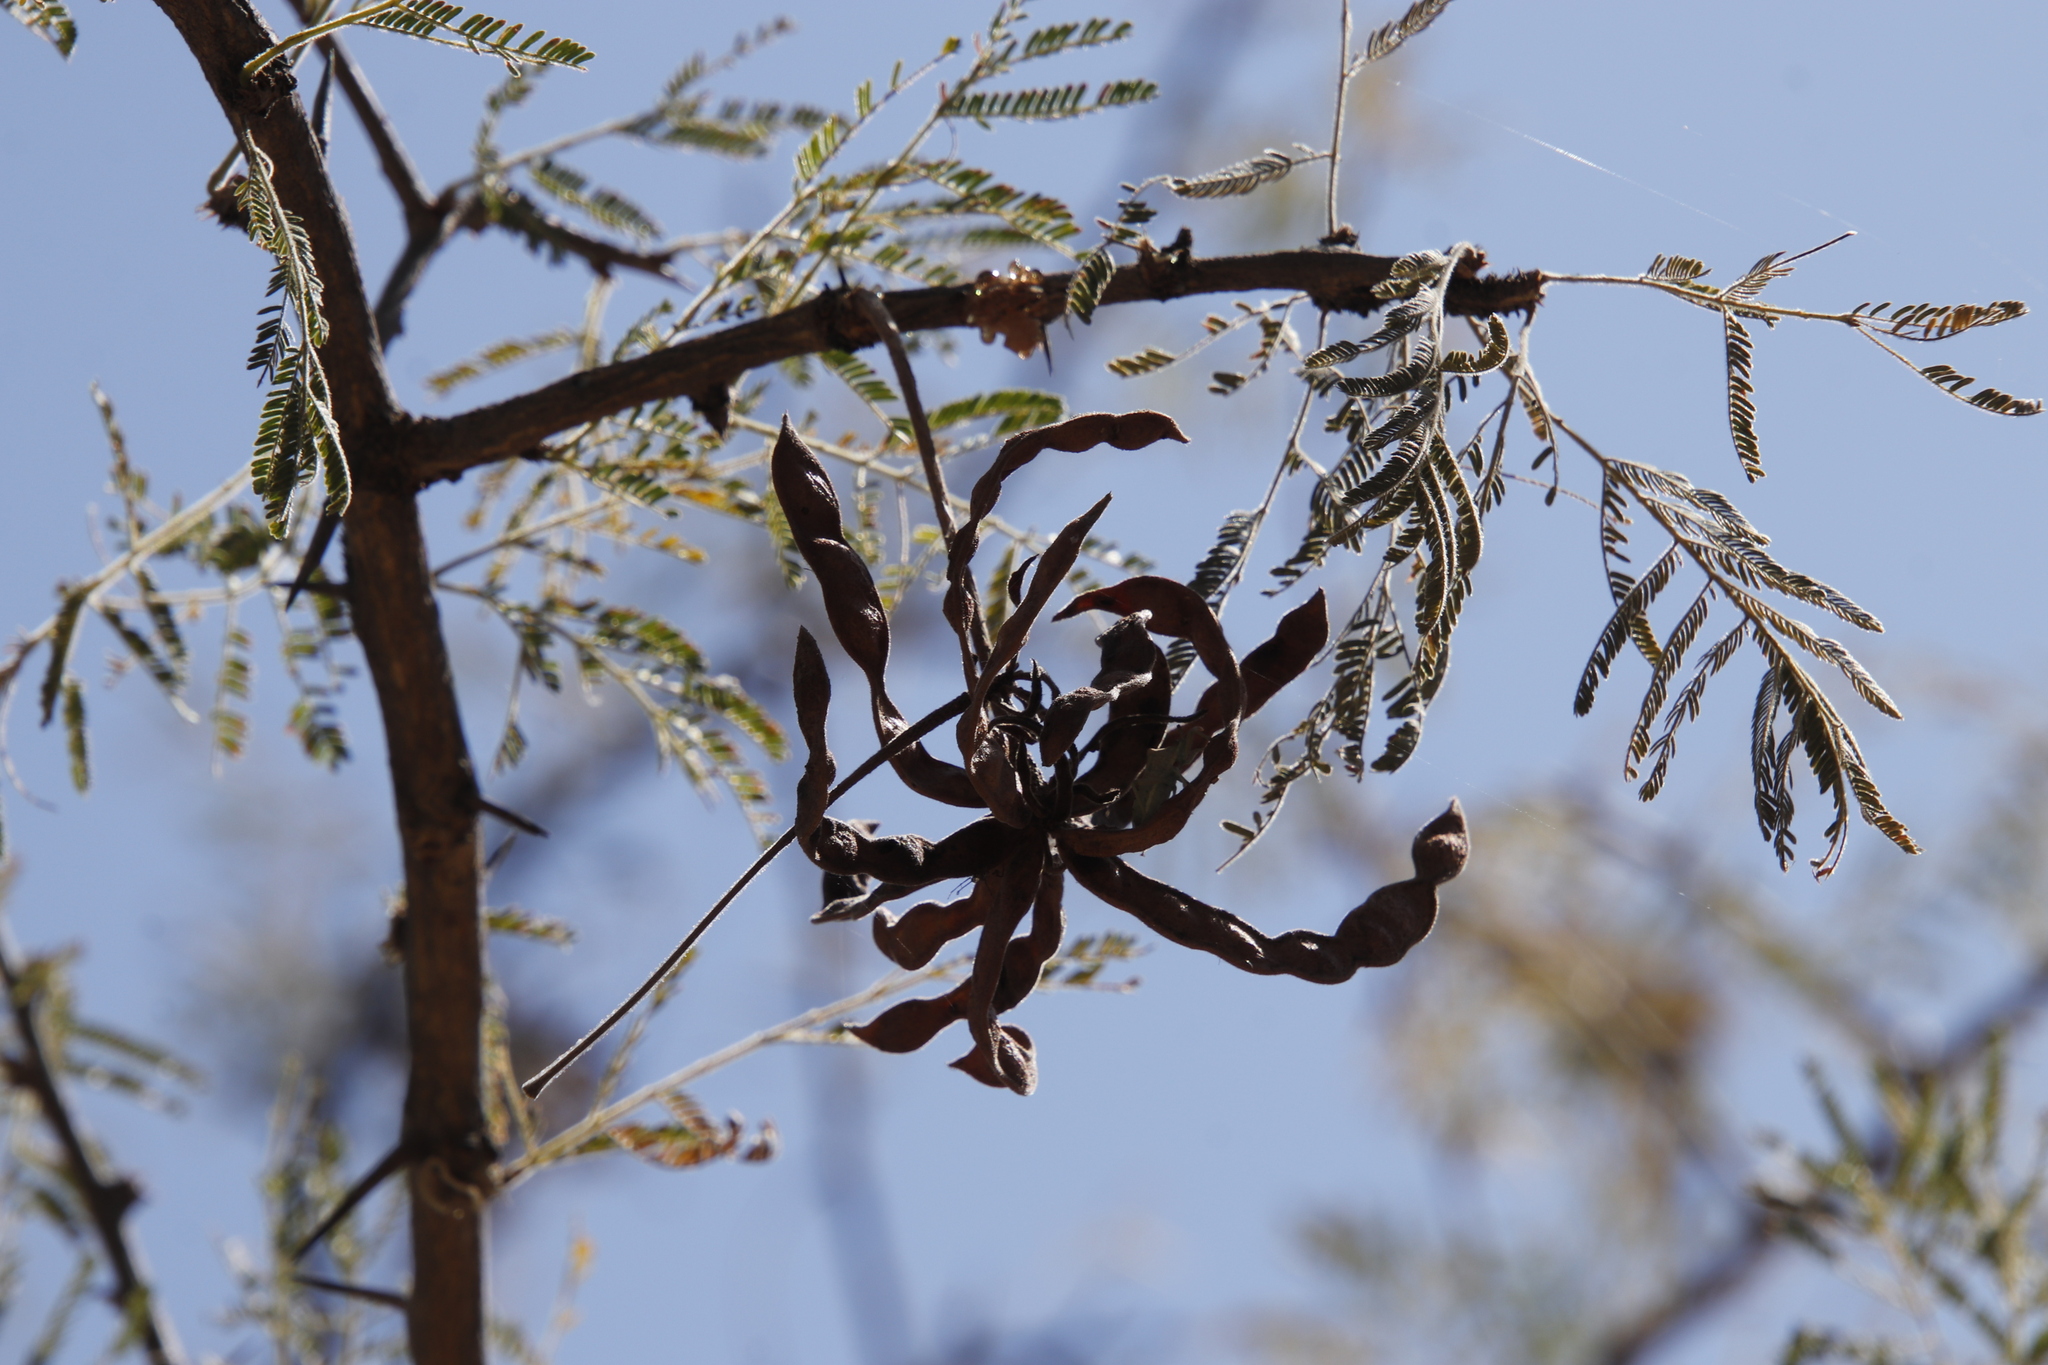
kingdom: Plantae
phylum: Tracheophyta
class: Magnoliopsida
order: Fabales
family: Fabaceae
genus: Dichrostachys
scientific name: Dichrostachys cinerea
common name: Sicklebush
